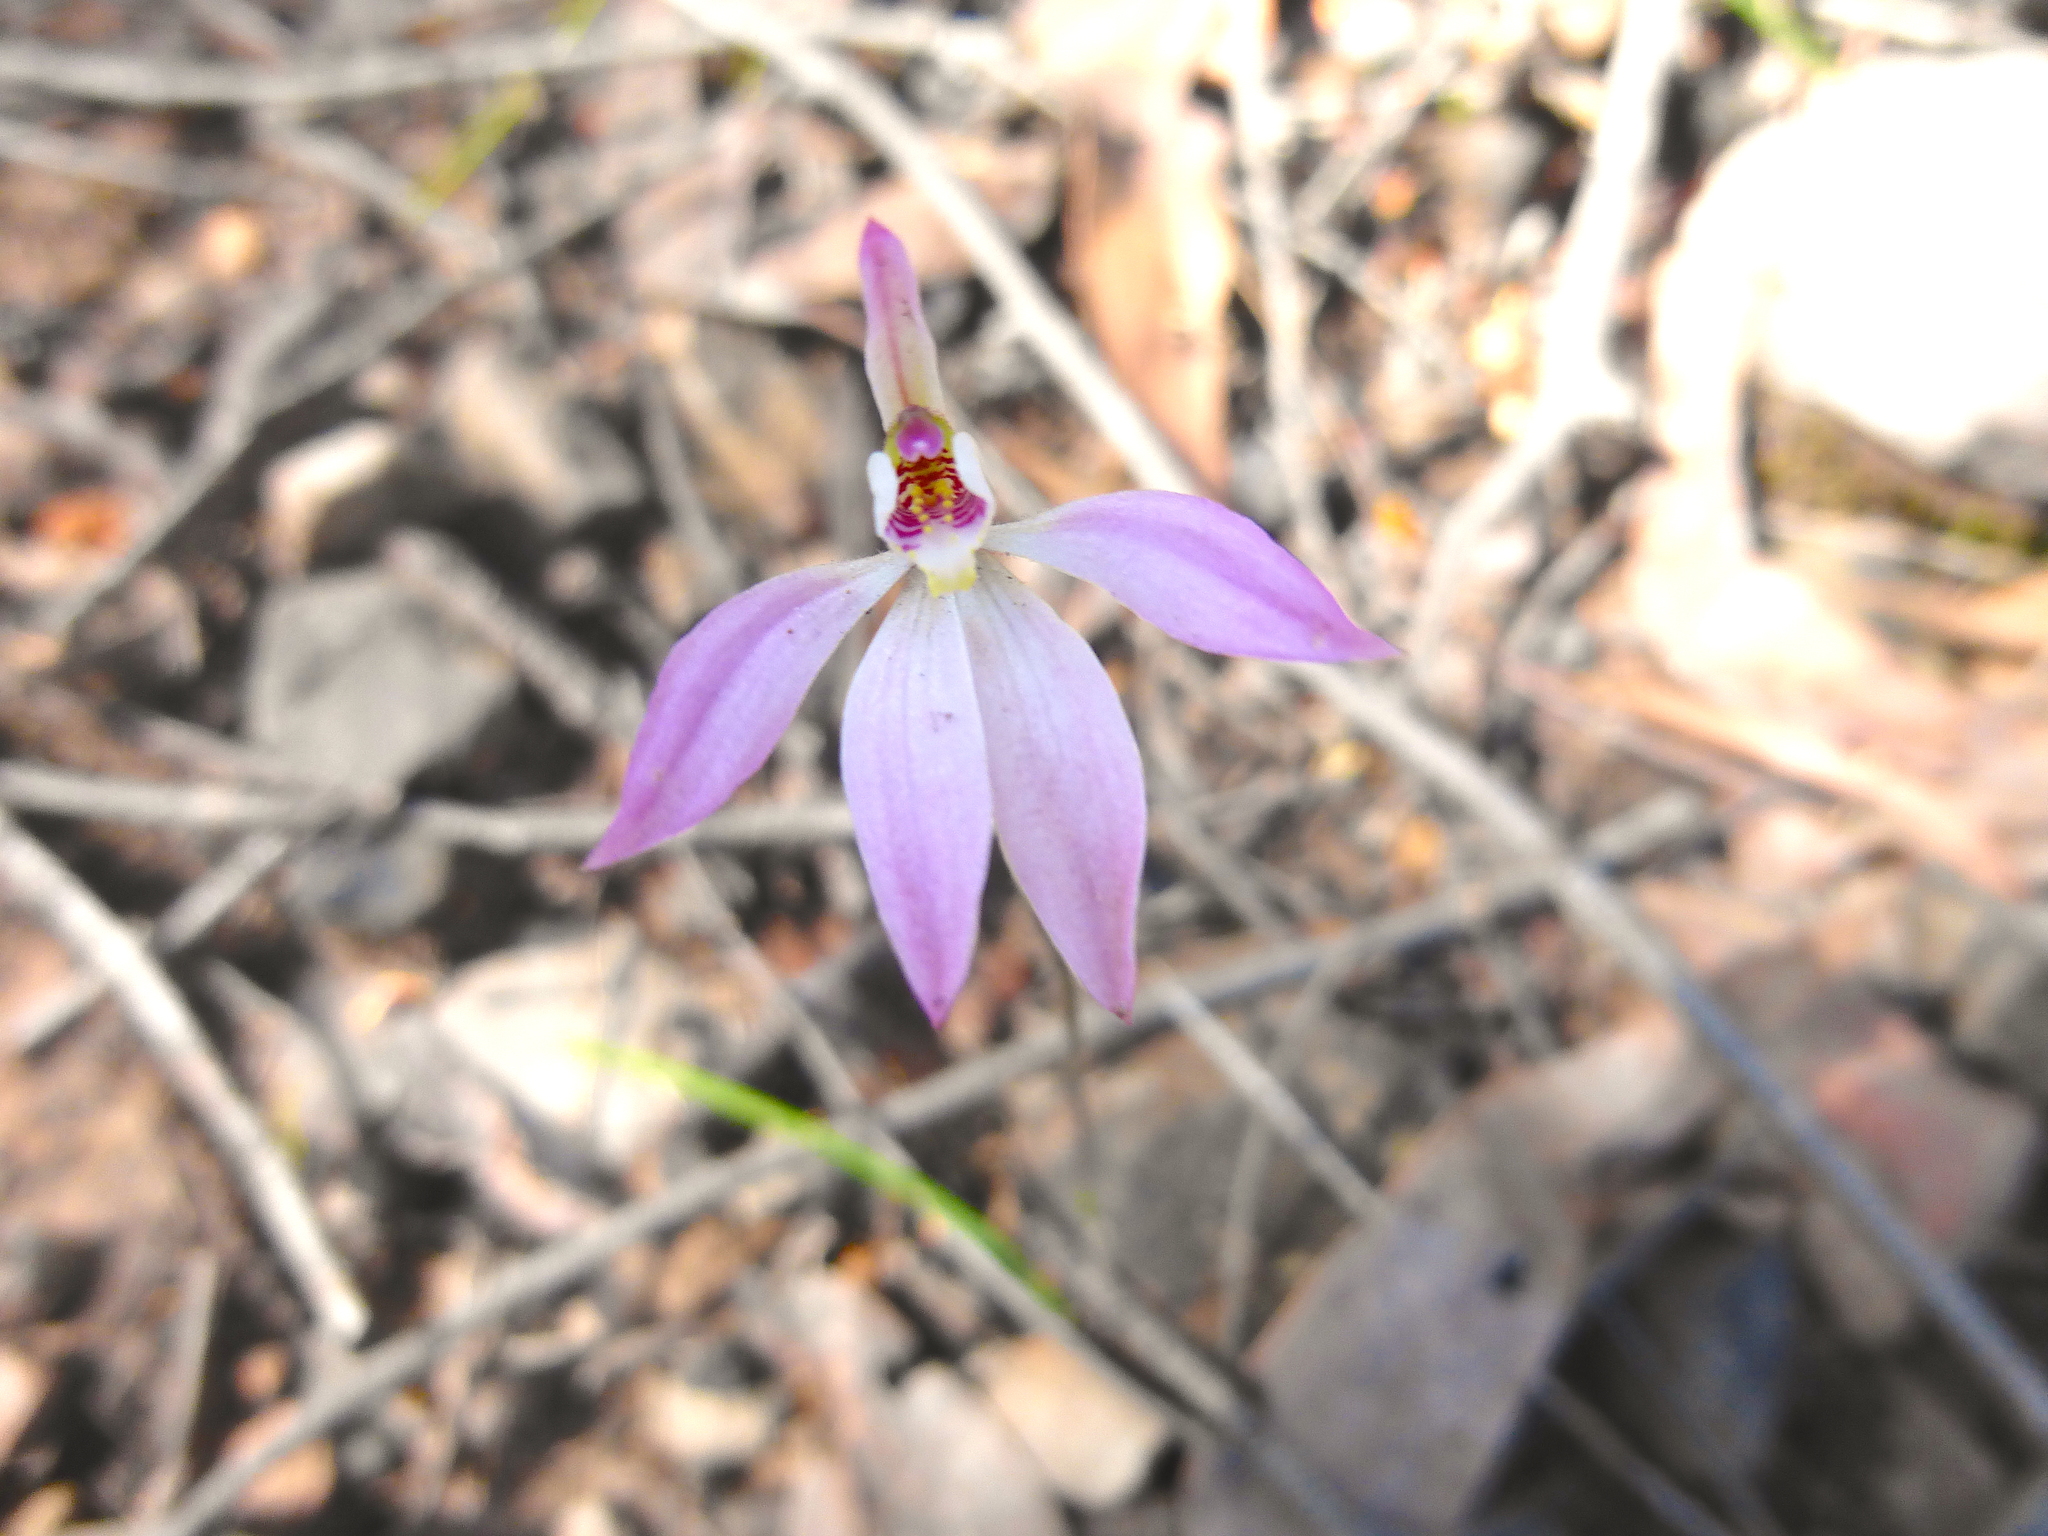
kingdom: Plantae
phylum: Tracheophyta
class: Liliopsida
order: Asparagales
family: Orchidaceae
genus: Caladenia
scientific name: Caladenia carnea
